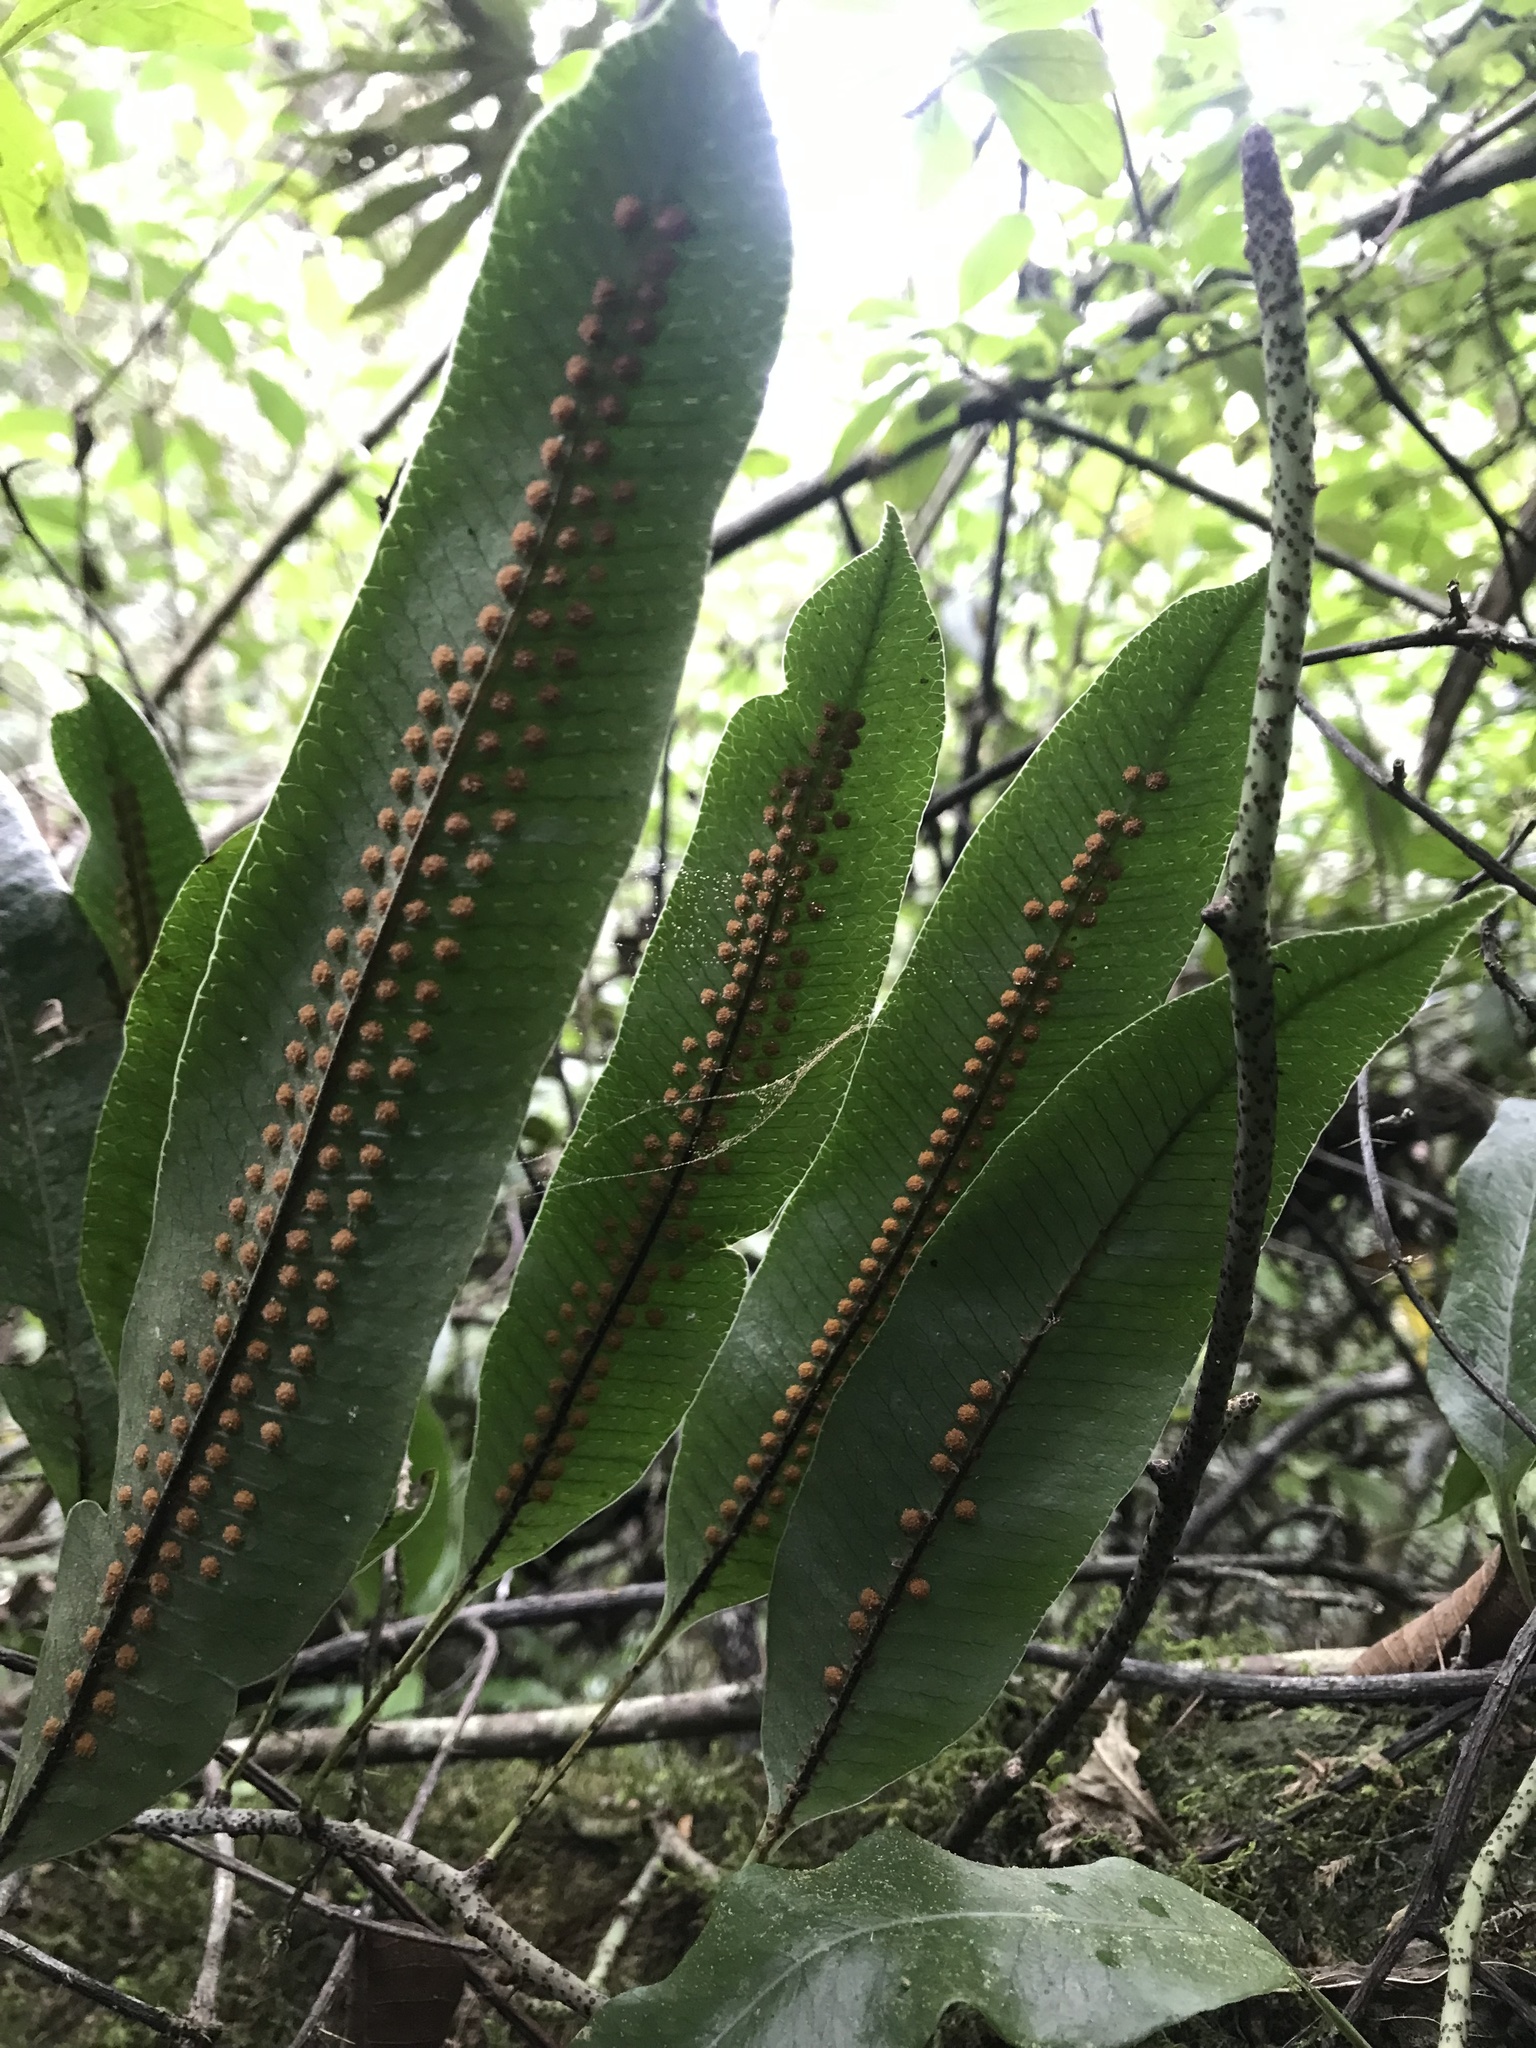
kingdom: Plantae
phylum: Tracheophyta
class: Polypodiopsida
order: Polypodiales
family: Polypodiaceae
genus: Serpocaulon
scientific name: Serpocaulon levigatum
